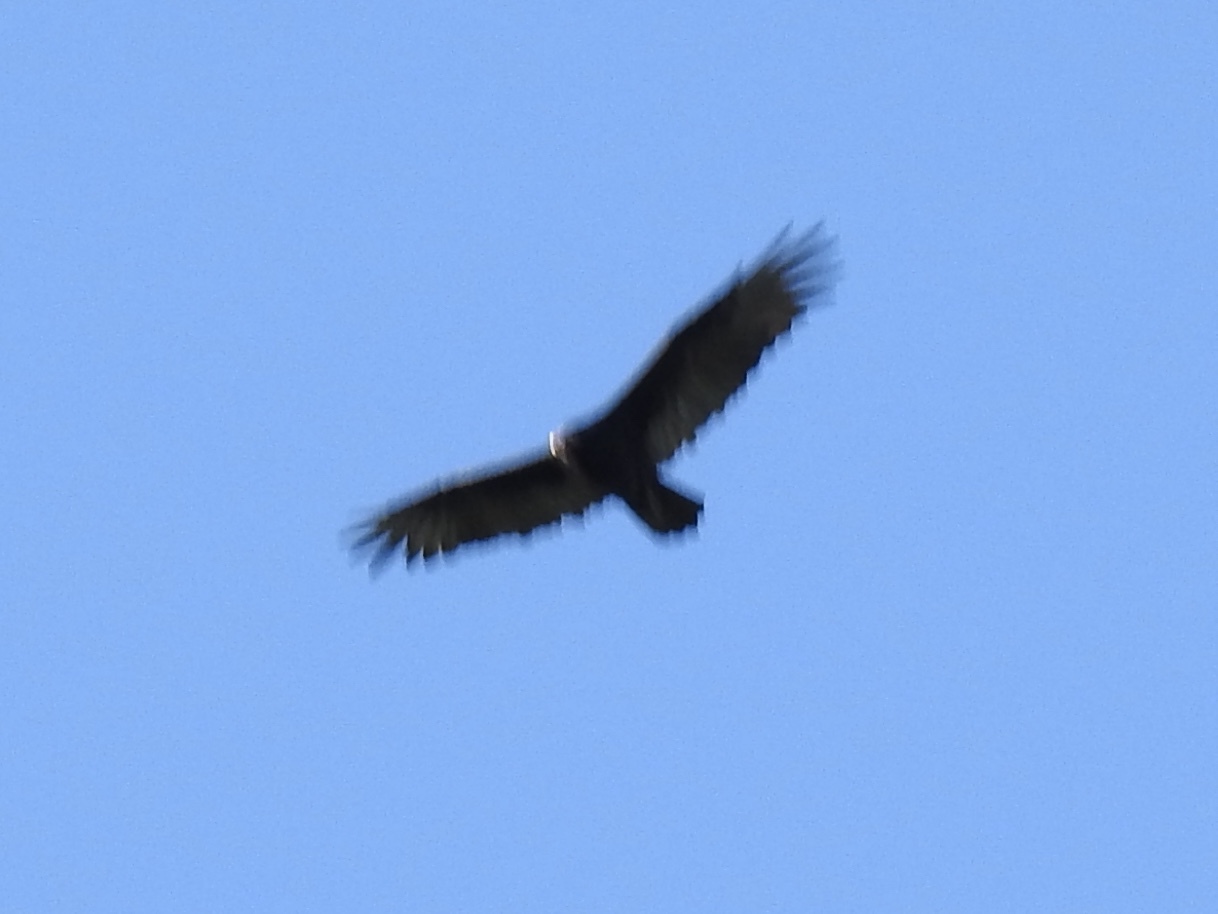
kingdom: Animalia
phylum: Chordata
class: Aves
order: Accipitriformes
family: Cathartidae
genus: Cathartes
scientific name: Cathartes aura
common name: Turkey vulture
